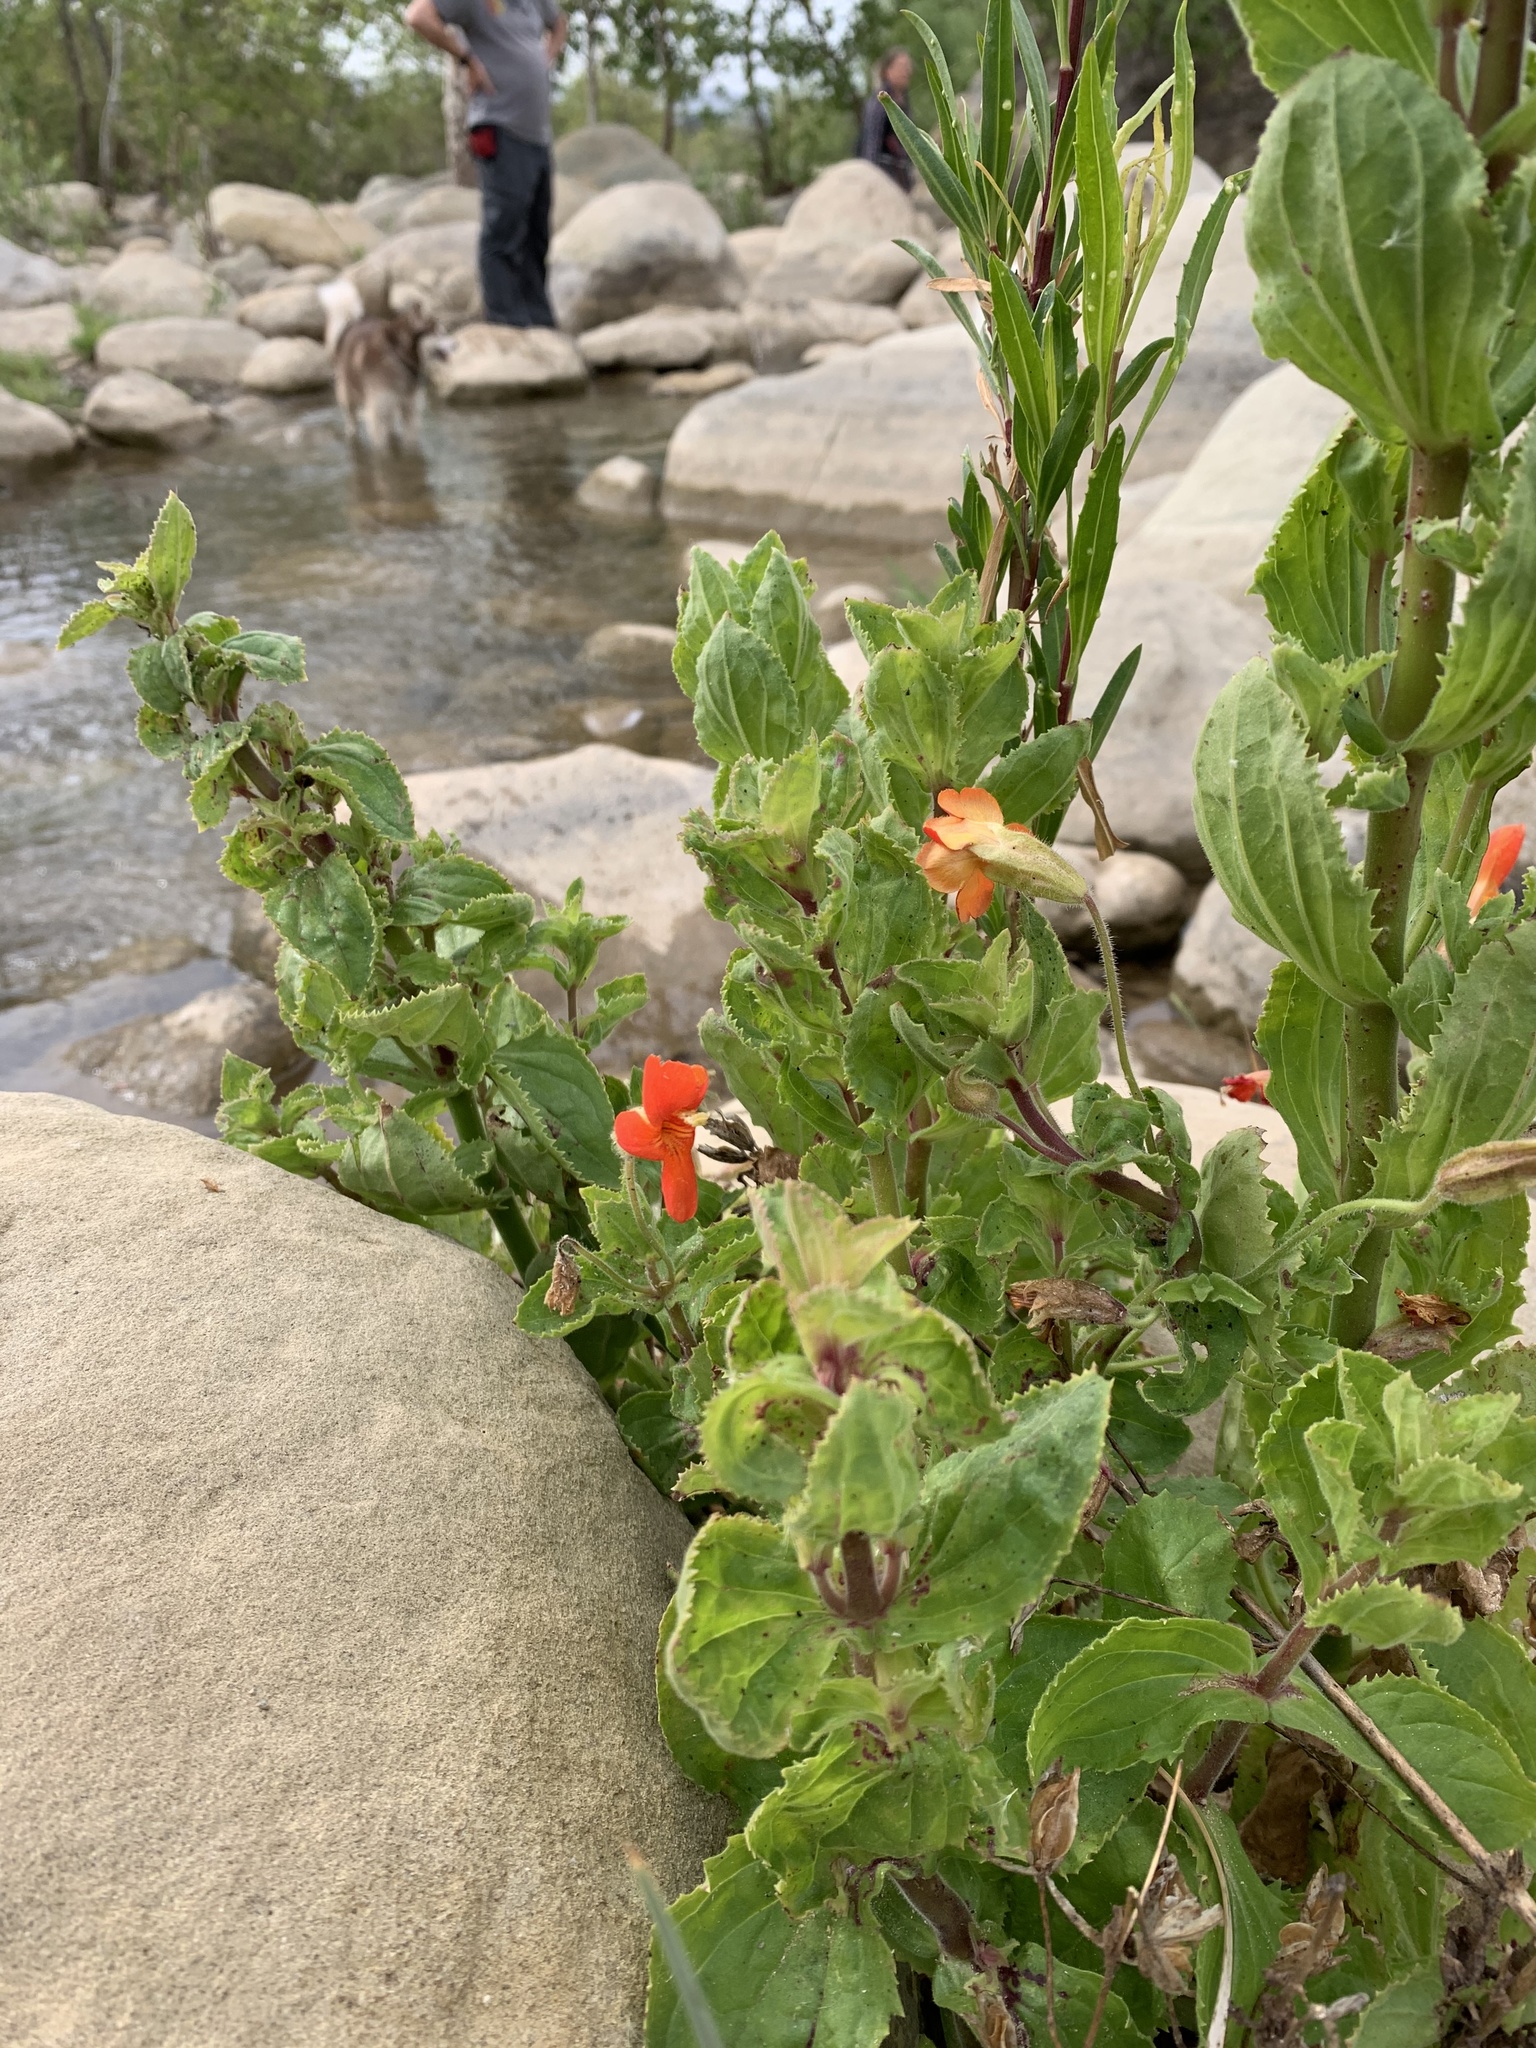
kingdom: Plantae
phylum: Tracheophyta
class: Magnoliopsida
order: Lamiales
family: Phrymaceae
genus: Erythranthe
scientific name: Erythranthe cardinalis
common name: Scarlet monkey-flower
